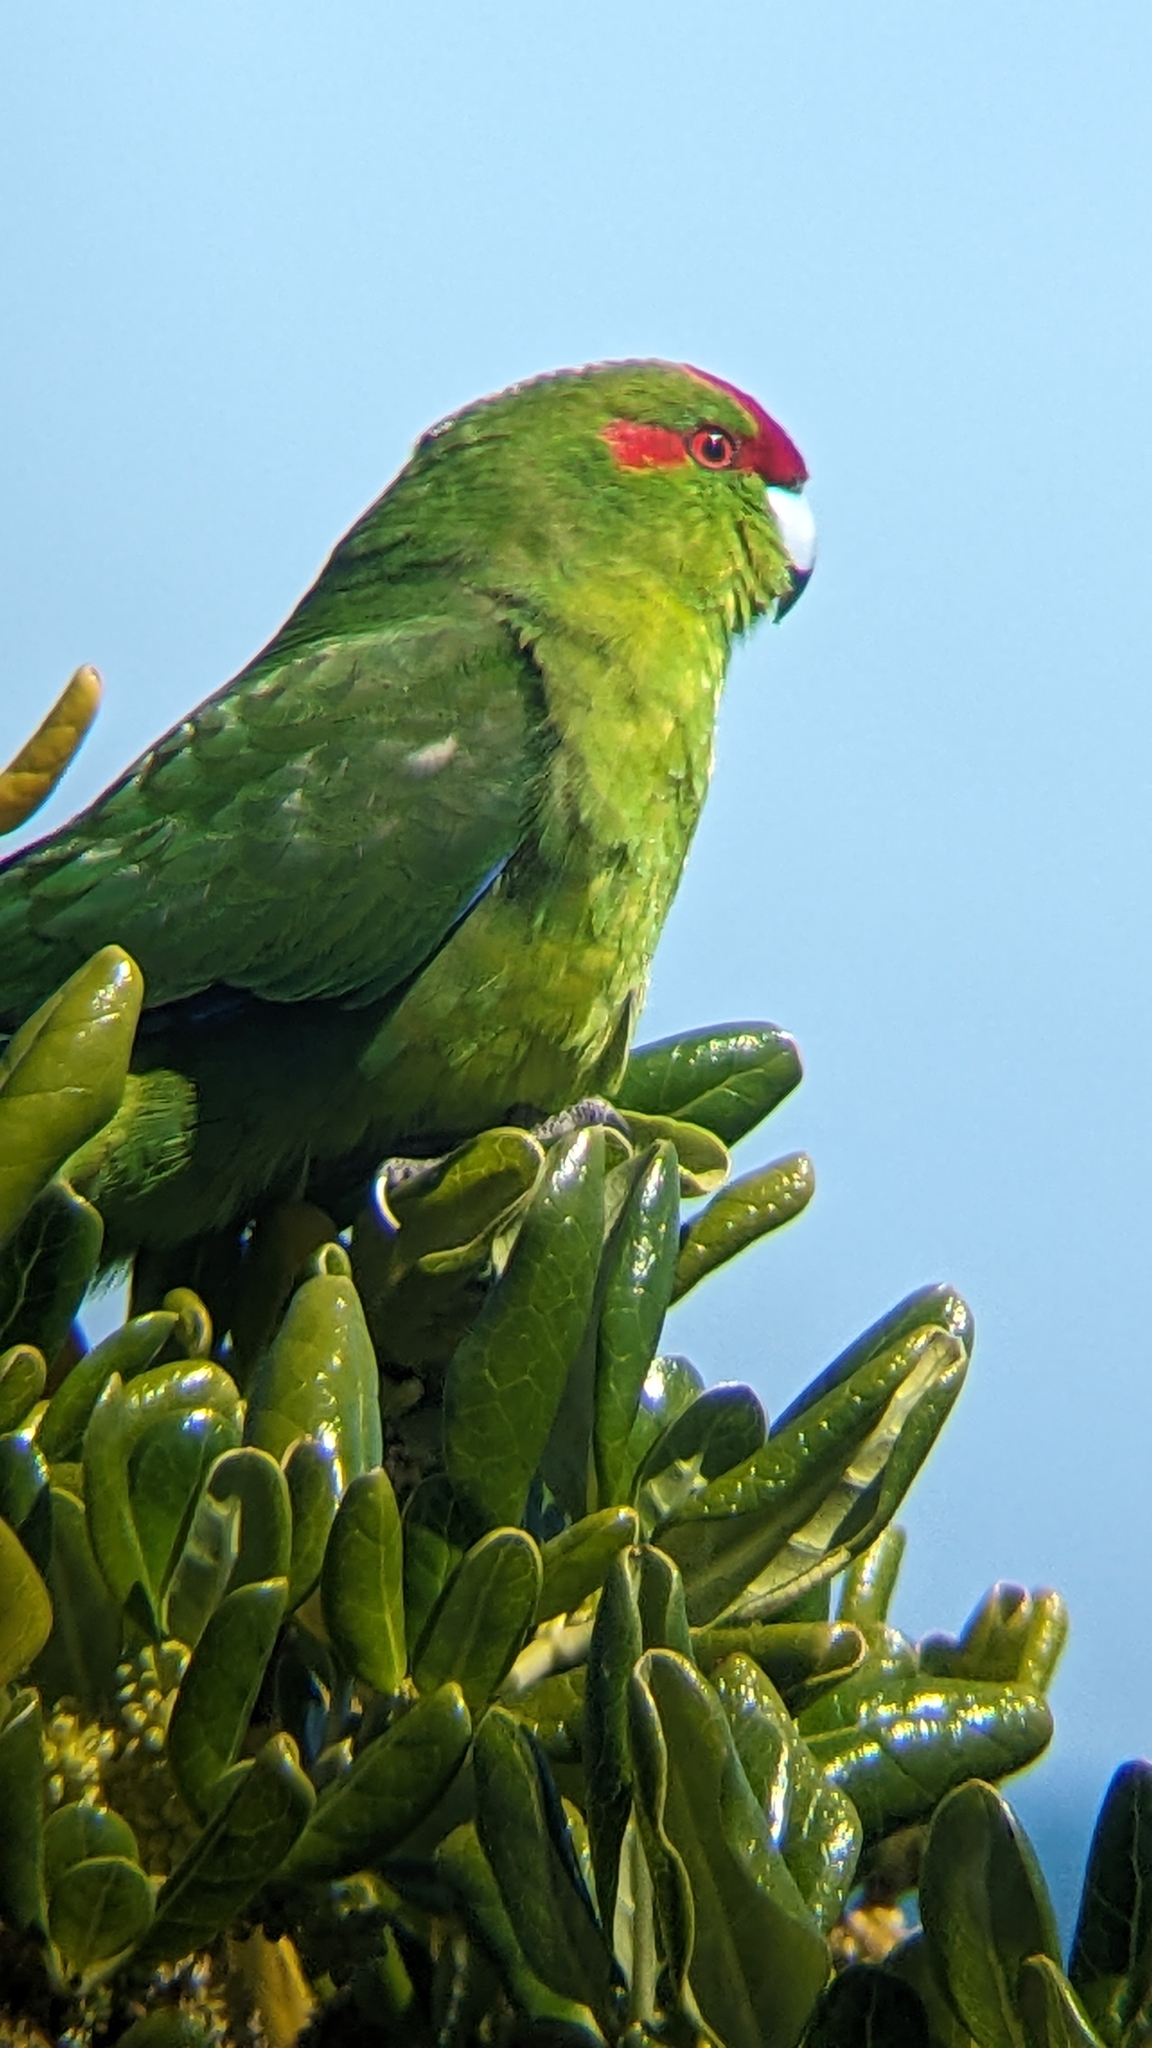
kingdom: Animalia
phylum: Chordata
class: Aves
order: Psittaciformes
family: Psittacidae
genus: Cyanoramphus
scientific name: Cyanoramphus novaezelandiae
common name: Red-fronted parakeet
